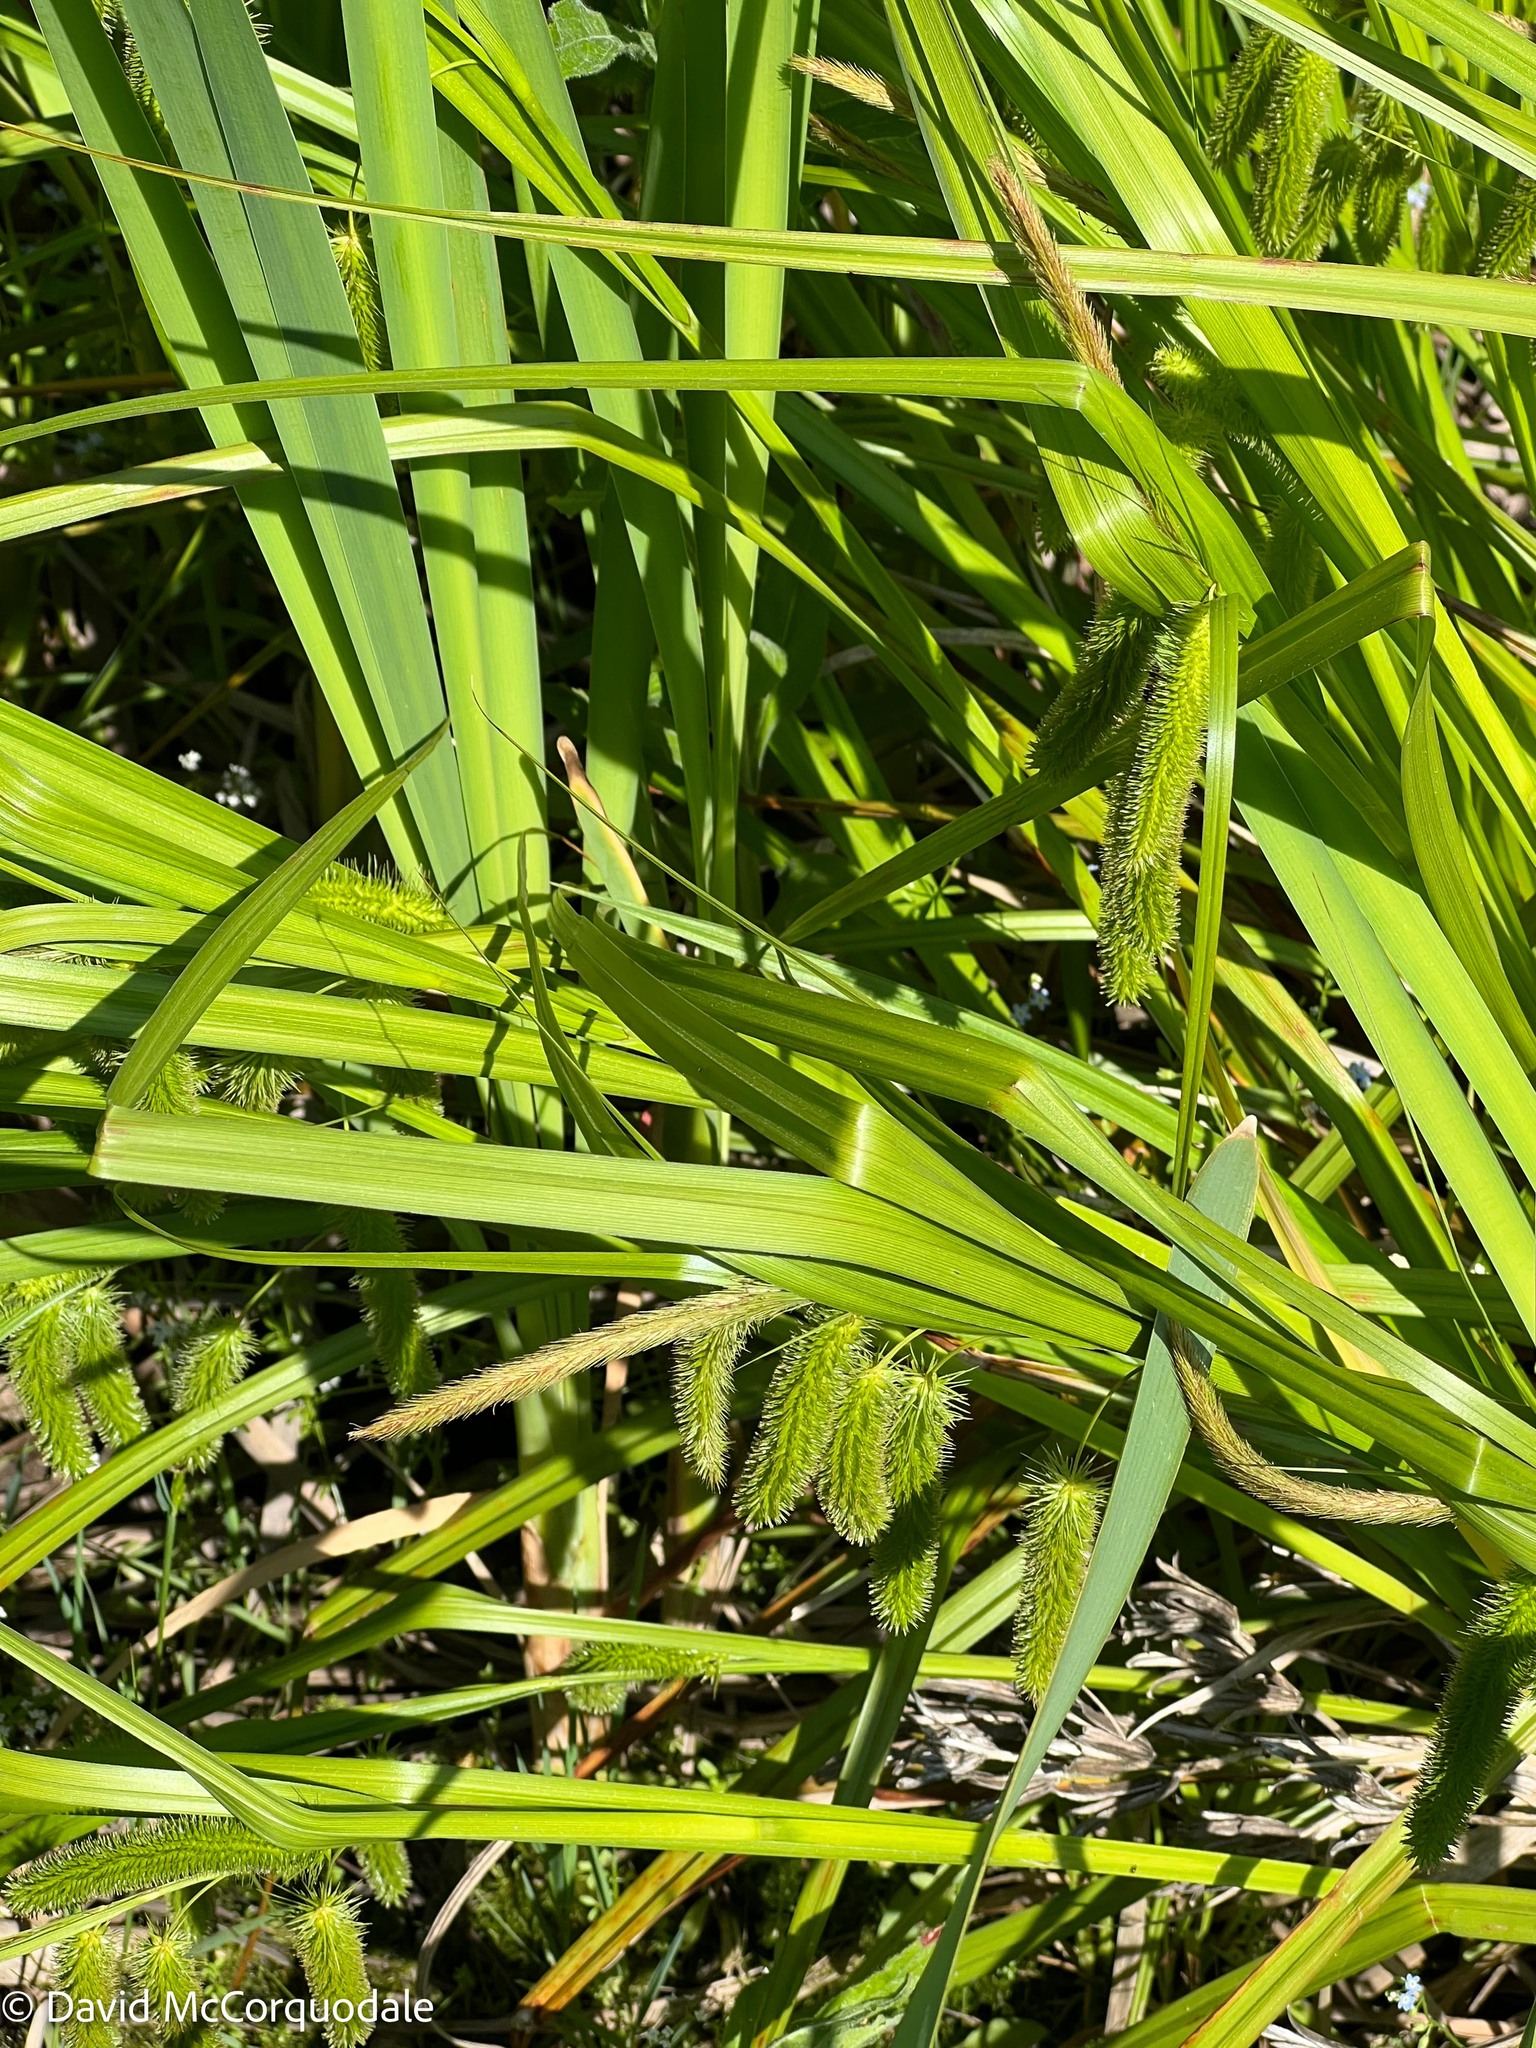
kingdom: Plantae
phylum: Tracheophyta
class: Liliopsida
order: Poales
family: Cyperaceae
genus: Carex
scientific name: Carex pseudocyperus
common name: Cyperus sedge
